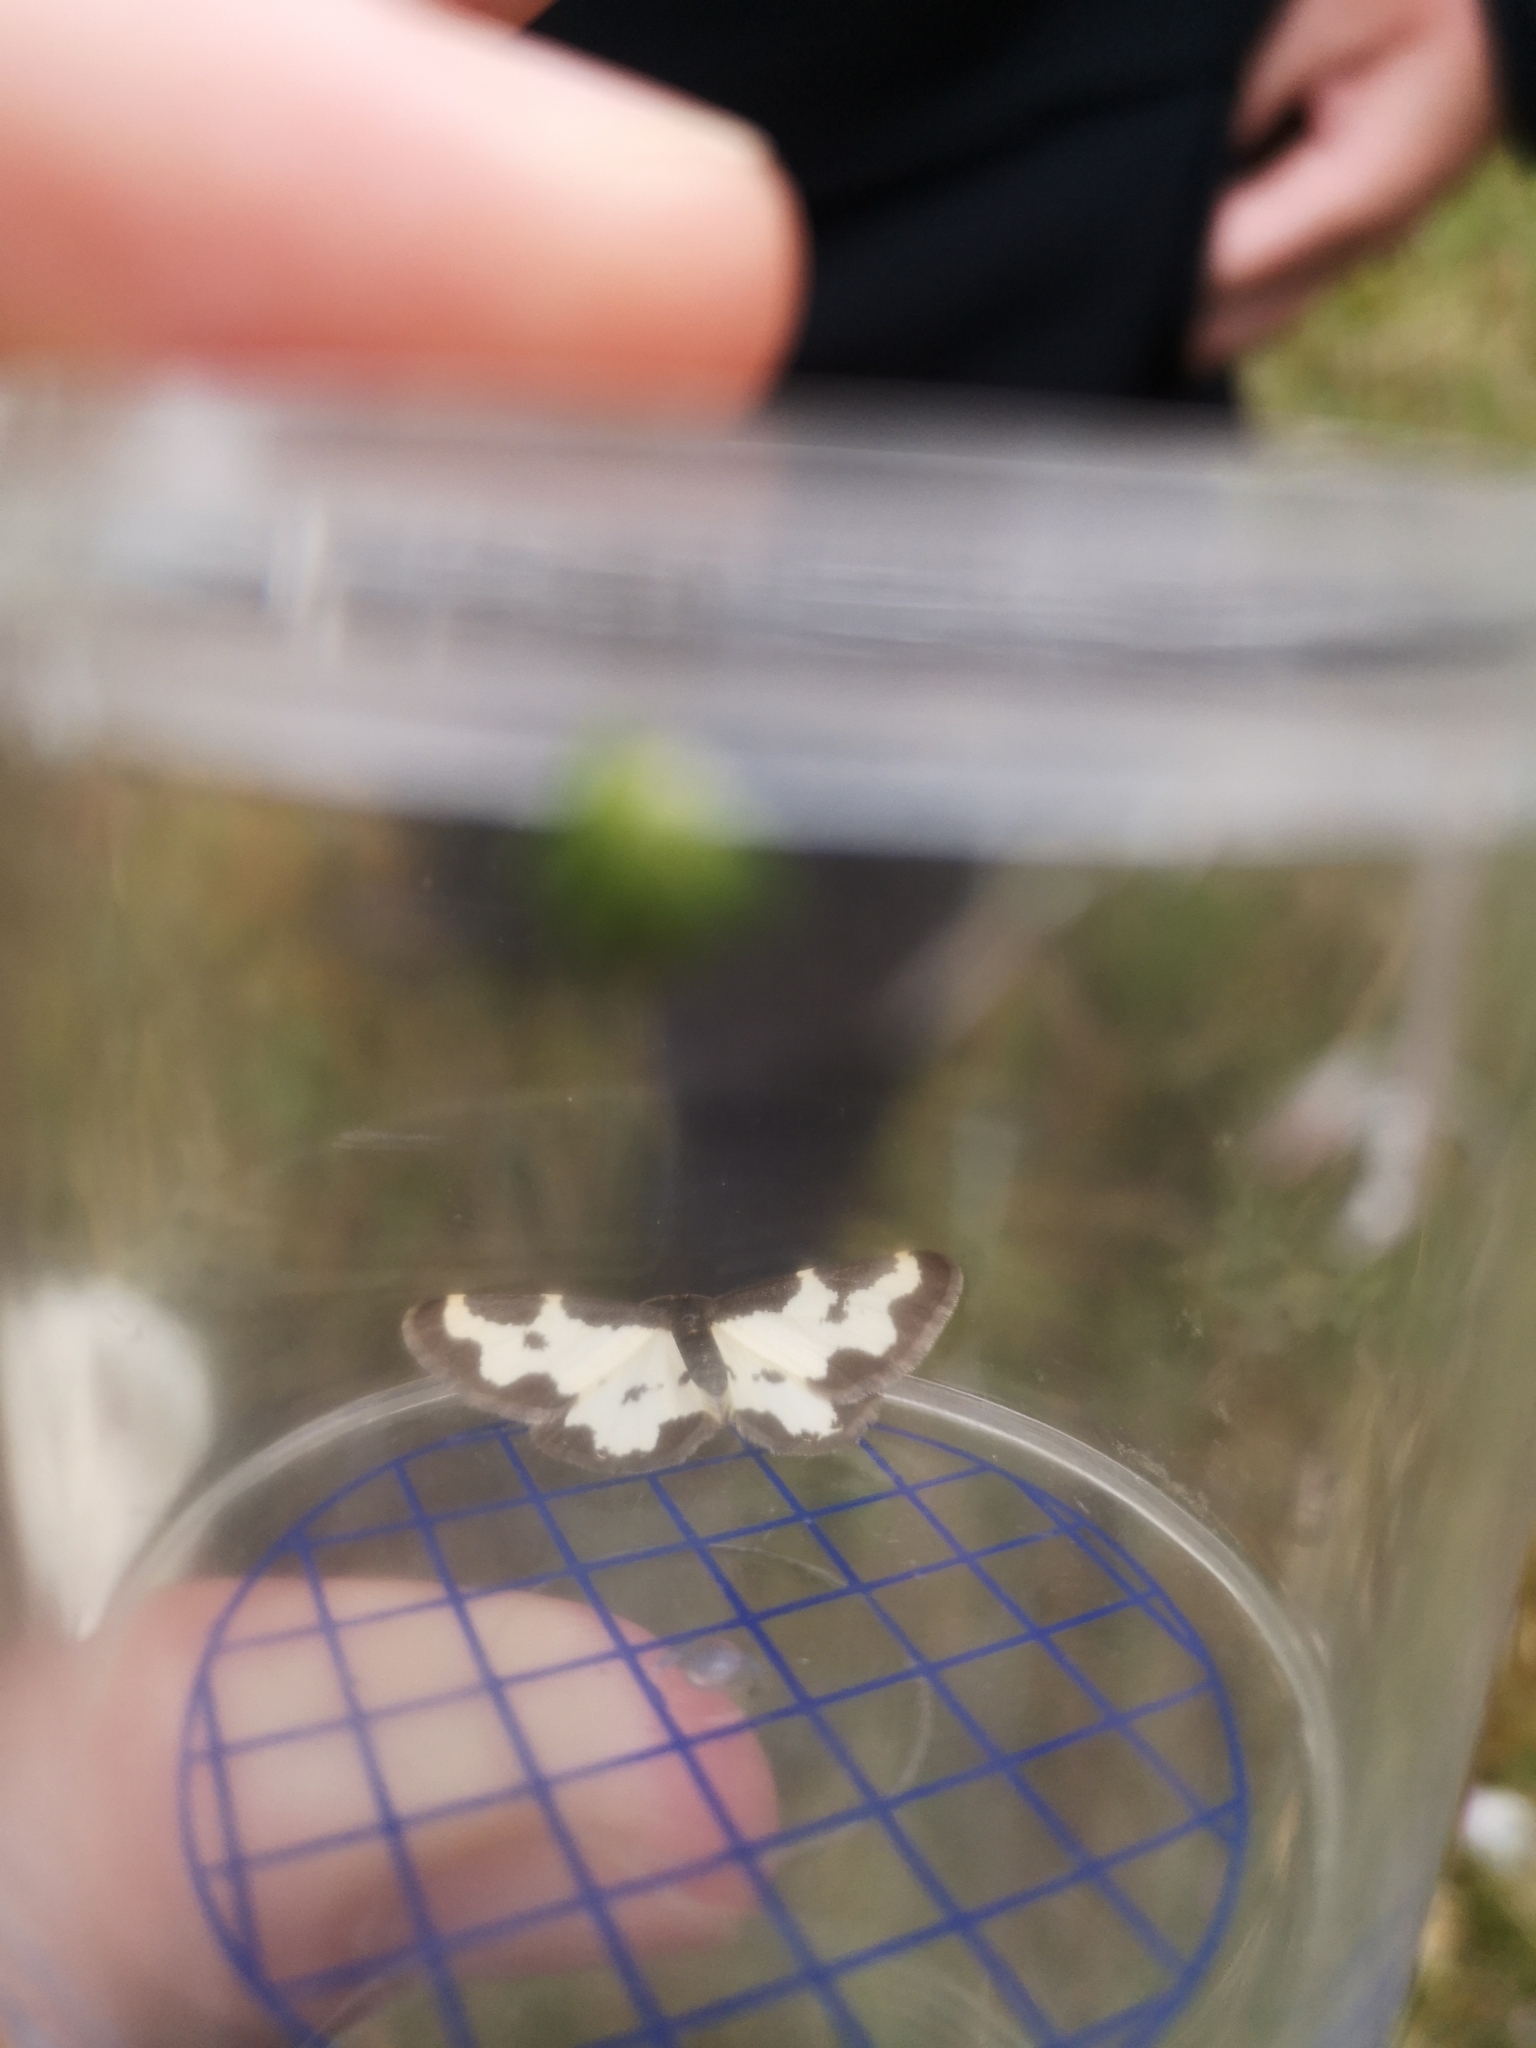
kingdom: Animalia
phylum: Arthropoda
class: Insecta
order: Lepidoptera
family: Geometridae
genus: Lomaspilis
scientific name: Lomaspilis marginata
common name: Clouded border
